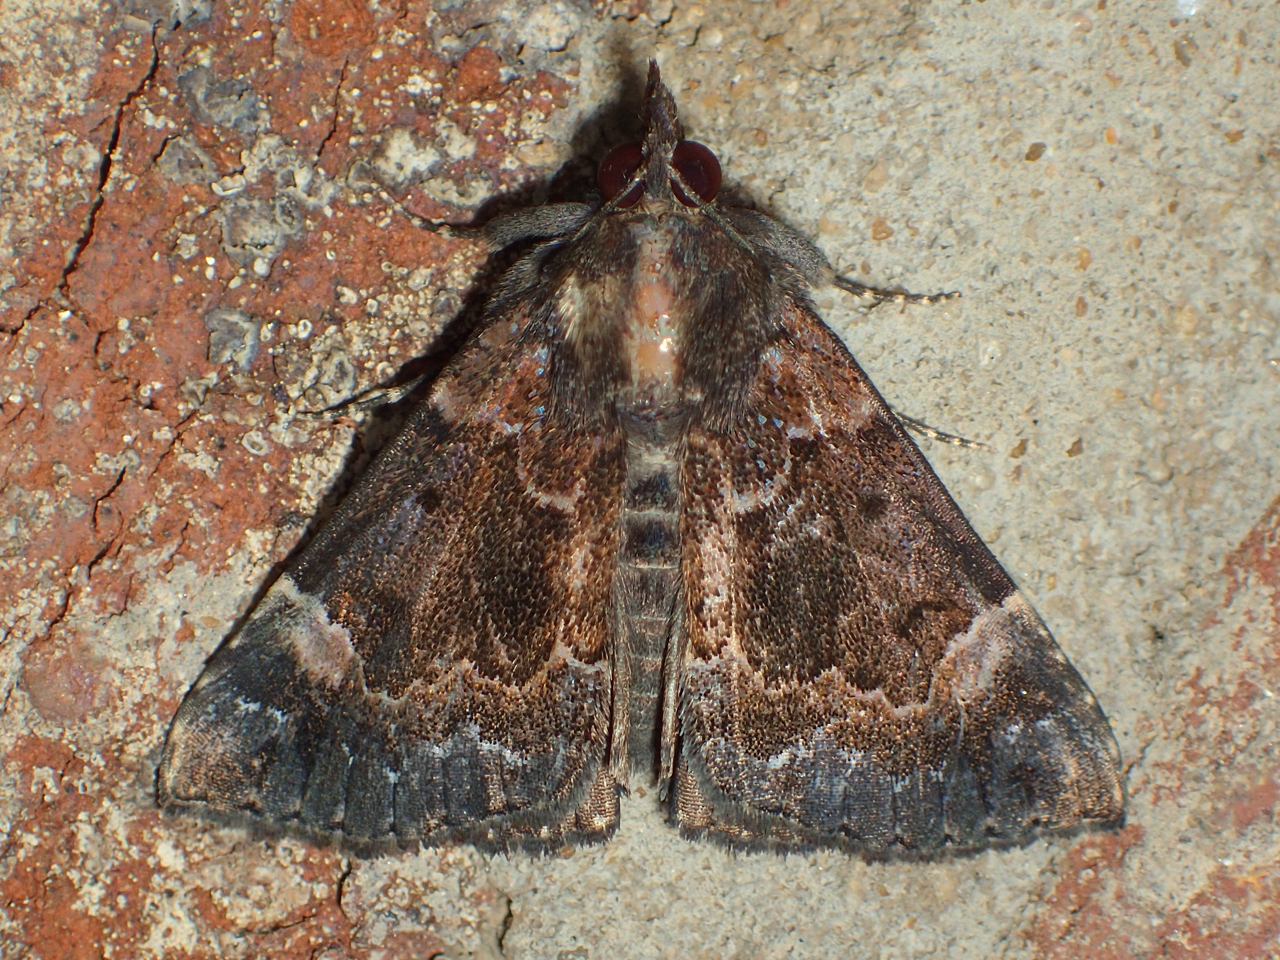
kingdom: Animalia
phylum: Arthropoda
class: Insecta
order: Lepidoptera
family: Erebidae
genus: Hypena
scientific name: Hypena palparia
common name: Mottled bomolocha moth
